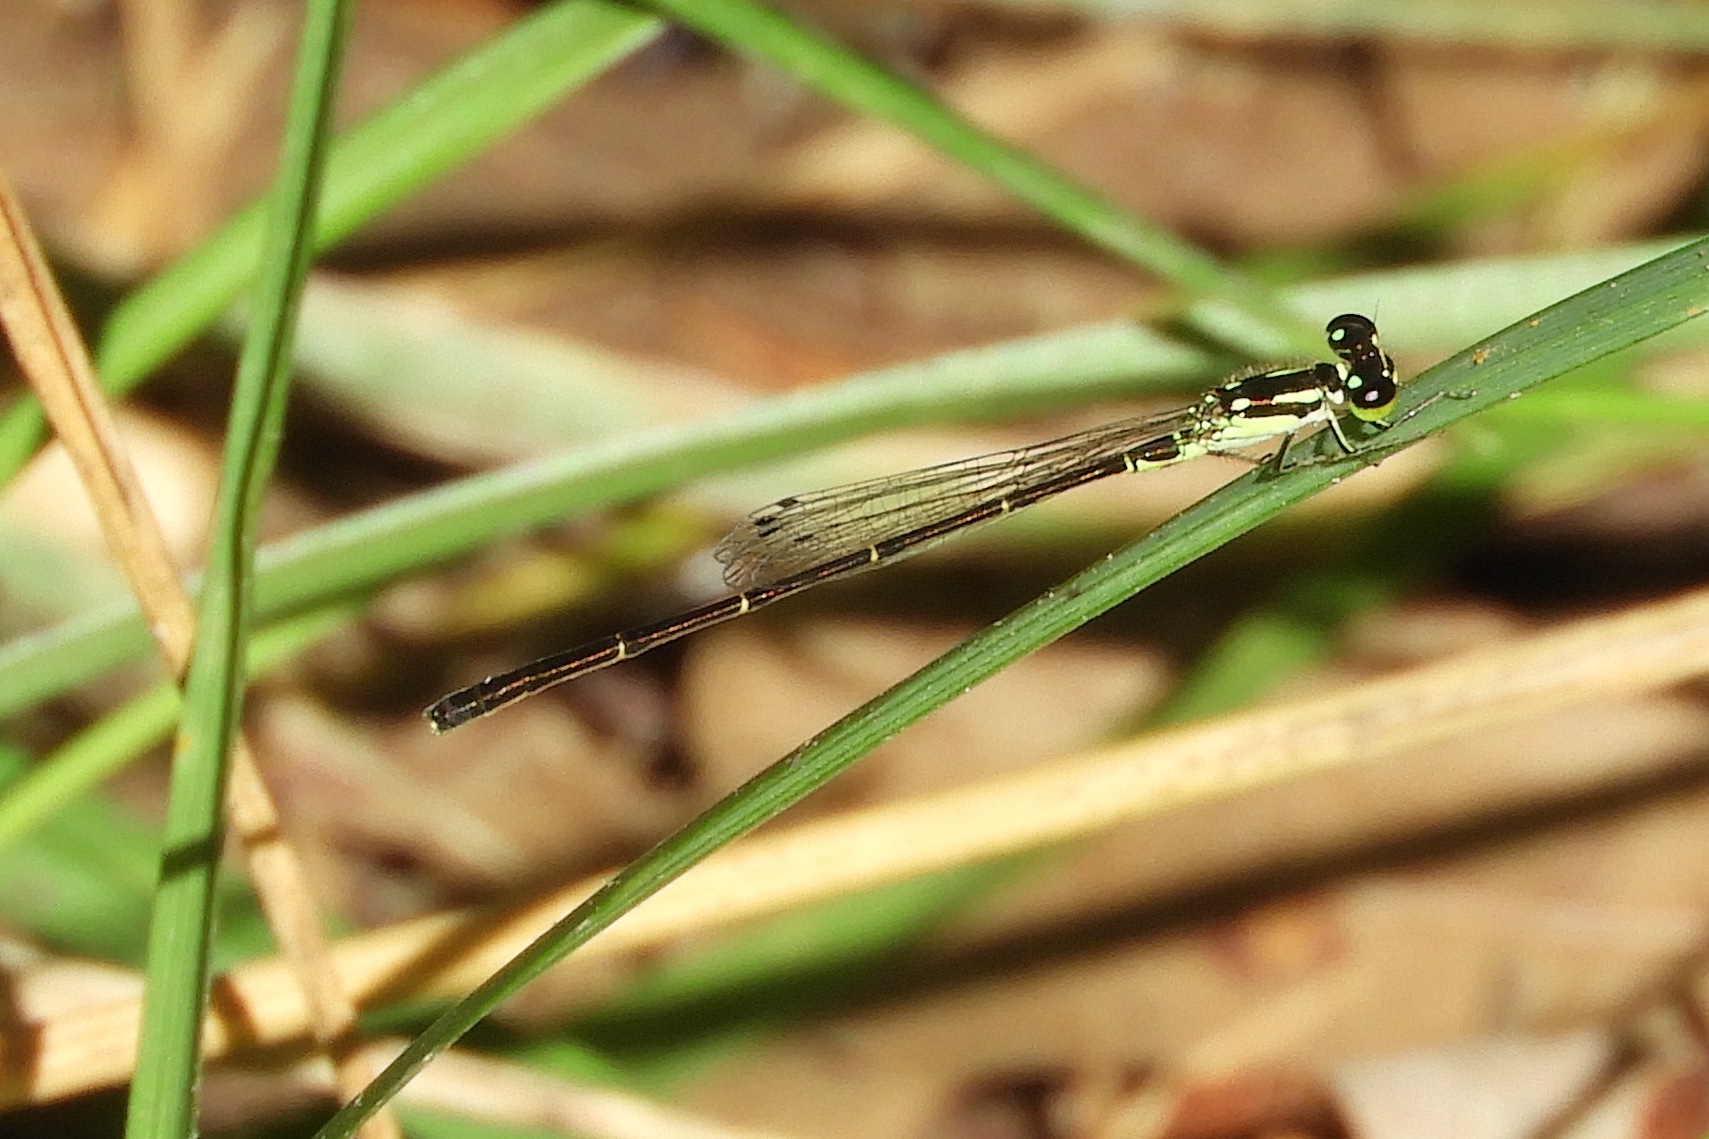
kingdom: Animalia
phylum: Arthropoda
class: Insecta
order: Odonata
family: Coenagrionidae
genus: Ischnura
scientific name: Ischnura posita
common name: Fragile forktail
